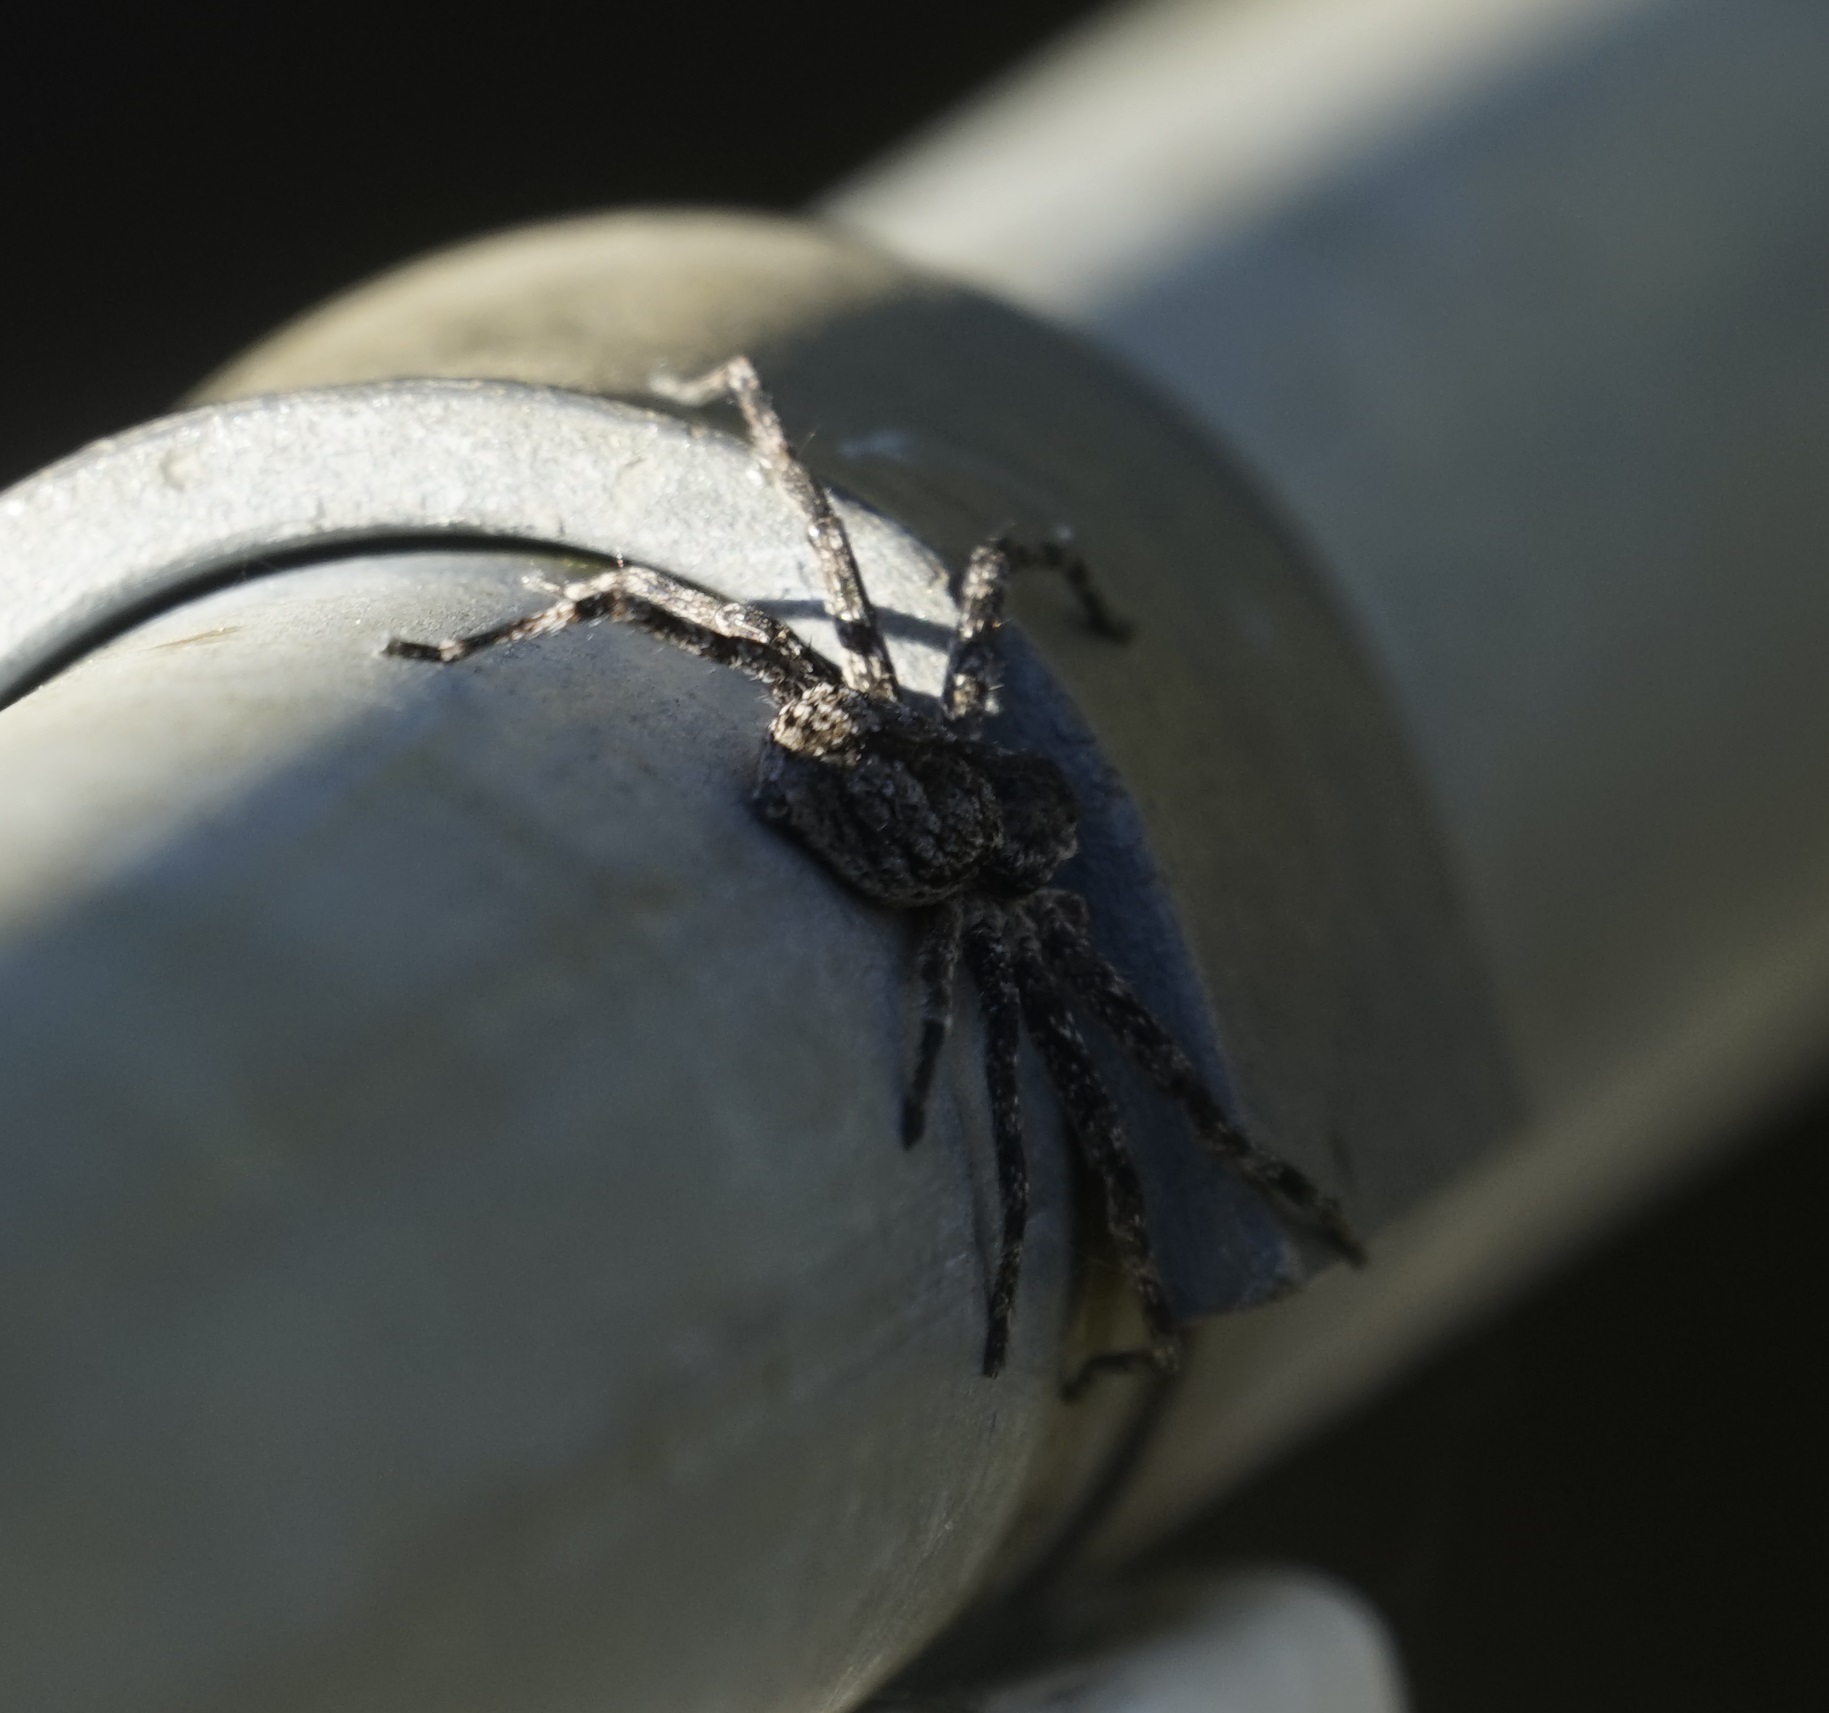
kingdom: Animalia
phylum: Arthropoda
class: Arachnida
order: Araneae
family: Sparassidae
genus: Pediana
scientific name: Pediana regina
